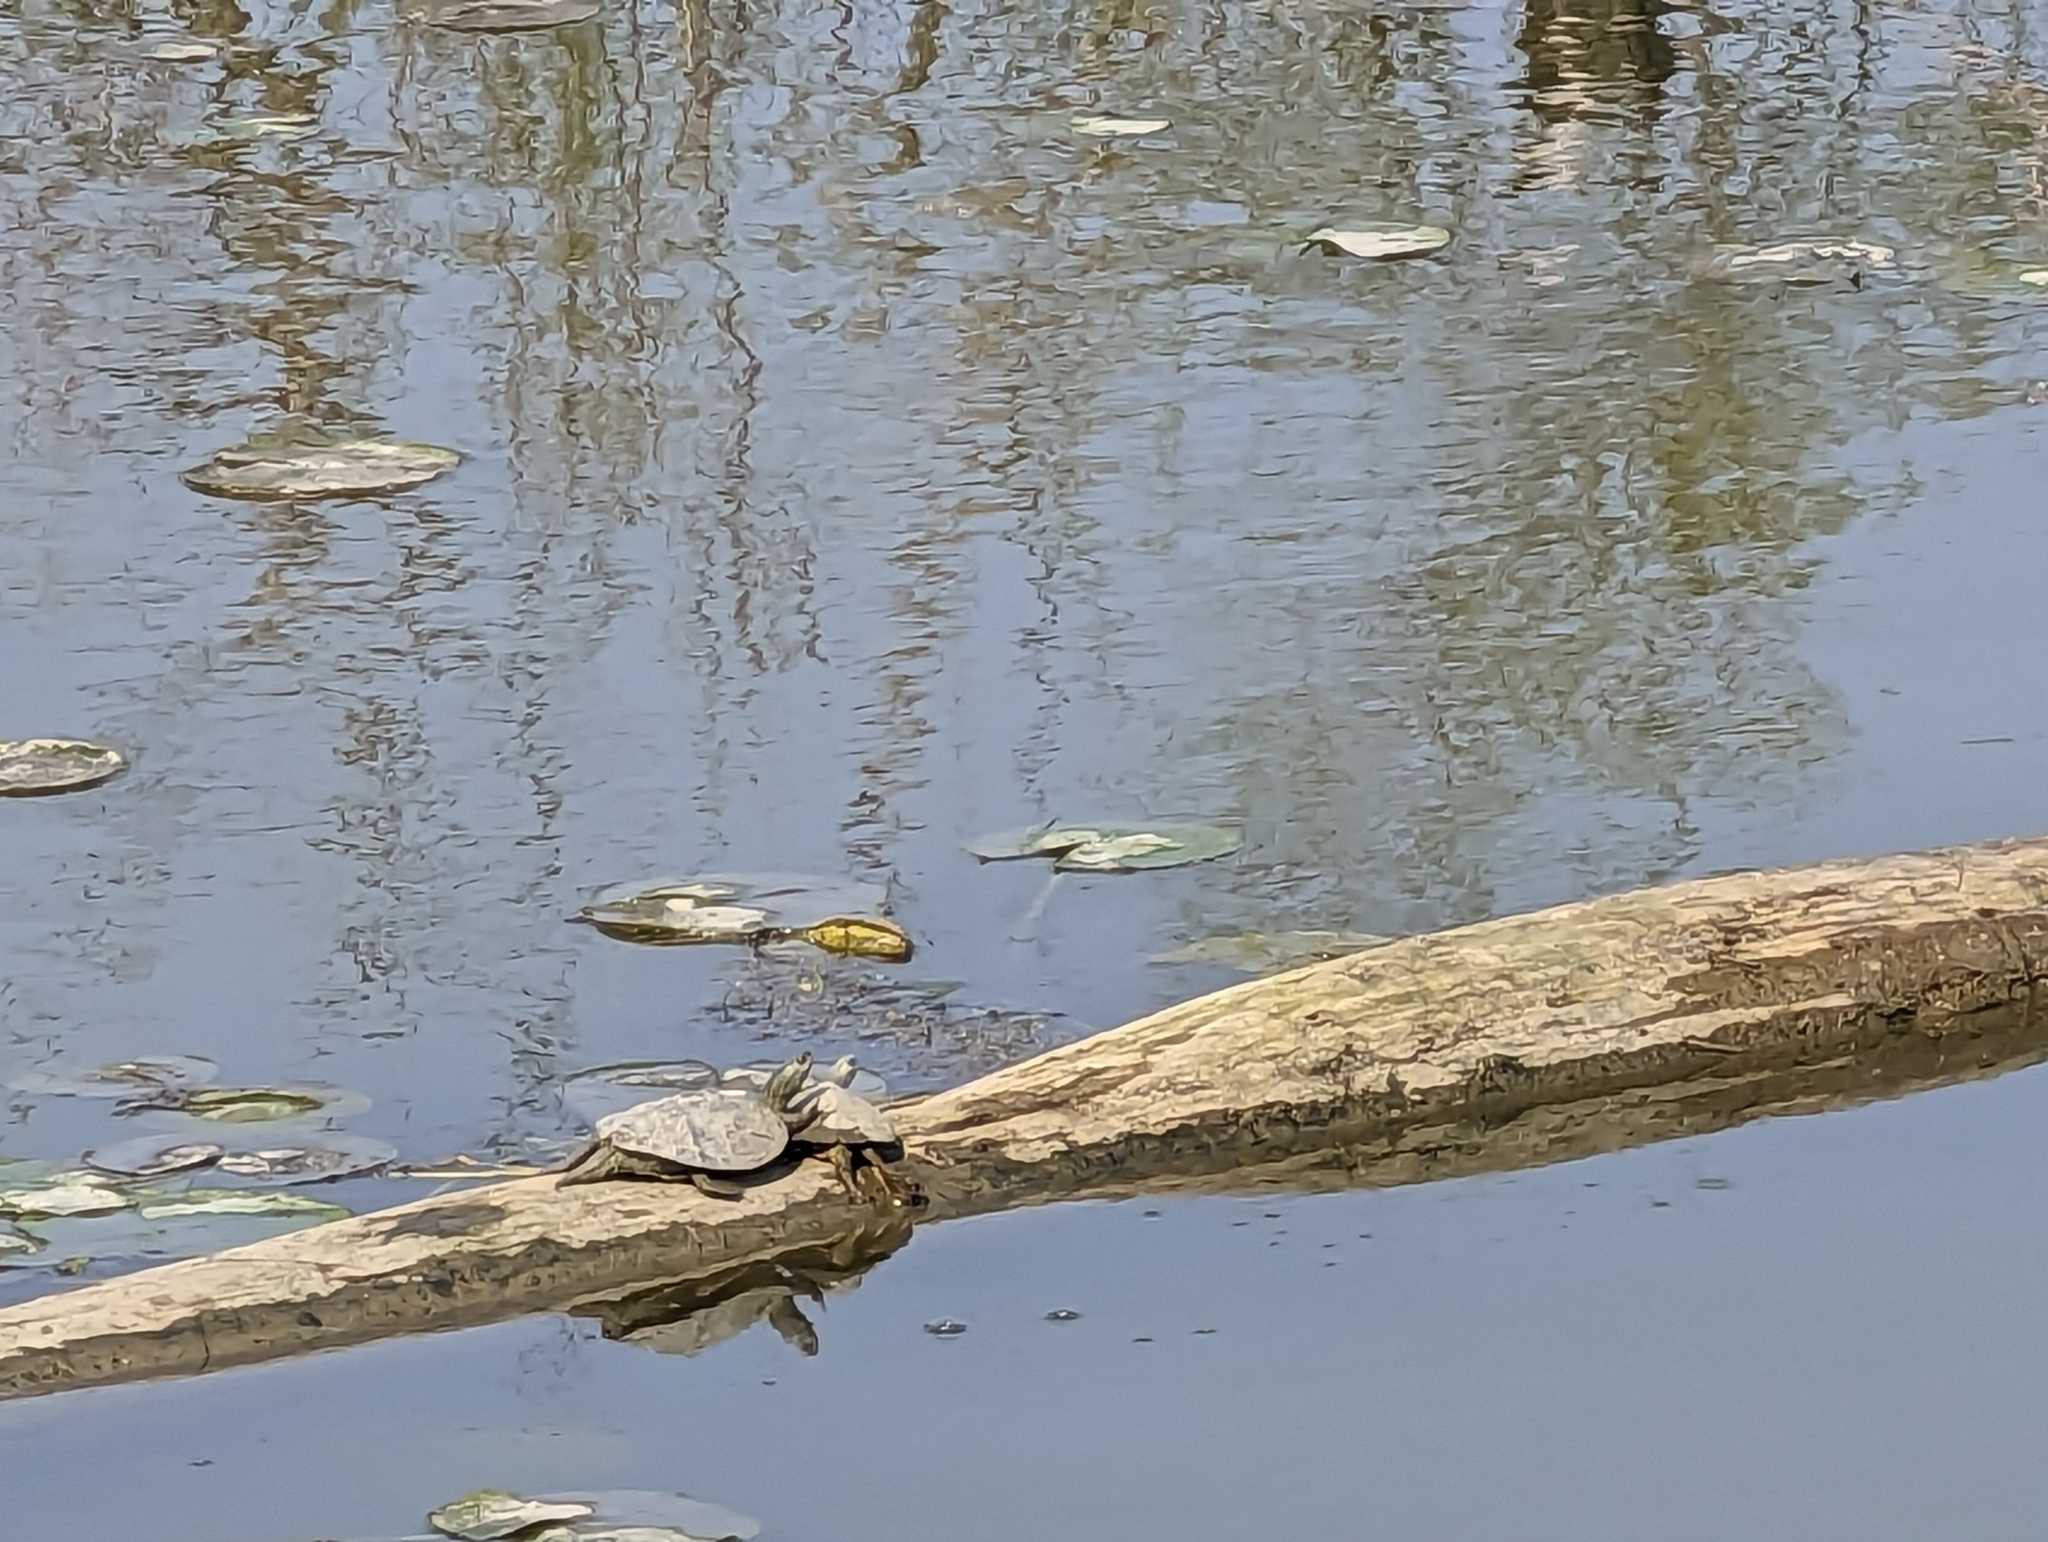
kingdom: Animalia
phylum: Chordata
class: Testudines
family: Emydidae
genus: Graptemys
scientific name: Graptemys geographica
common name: Common map turtle
